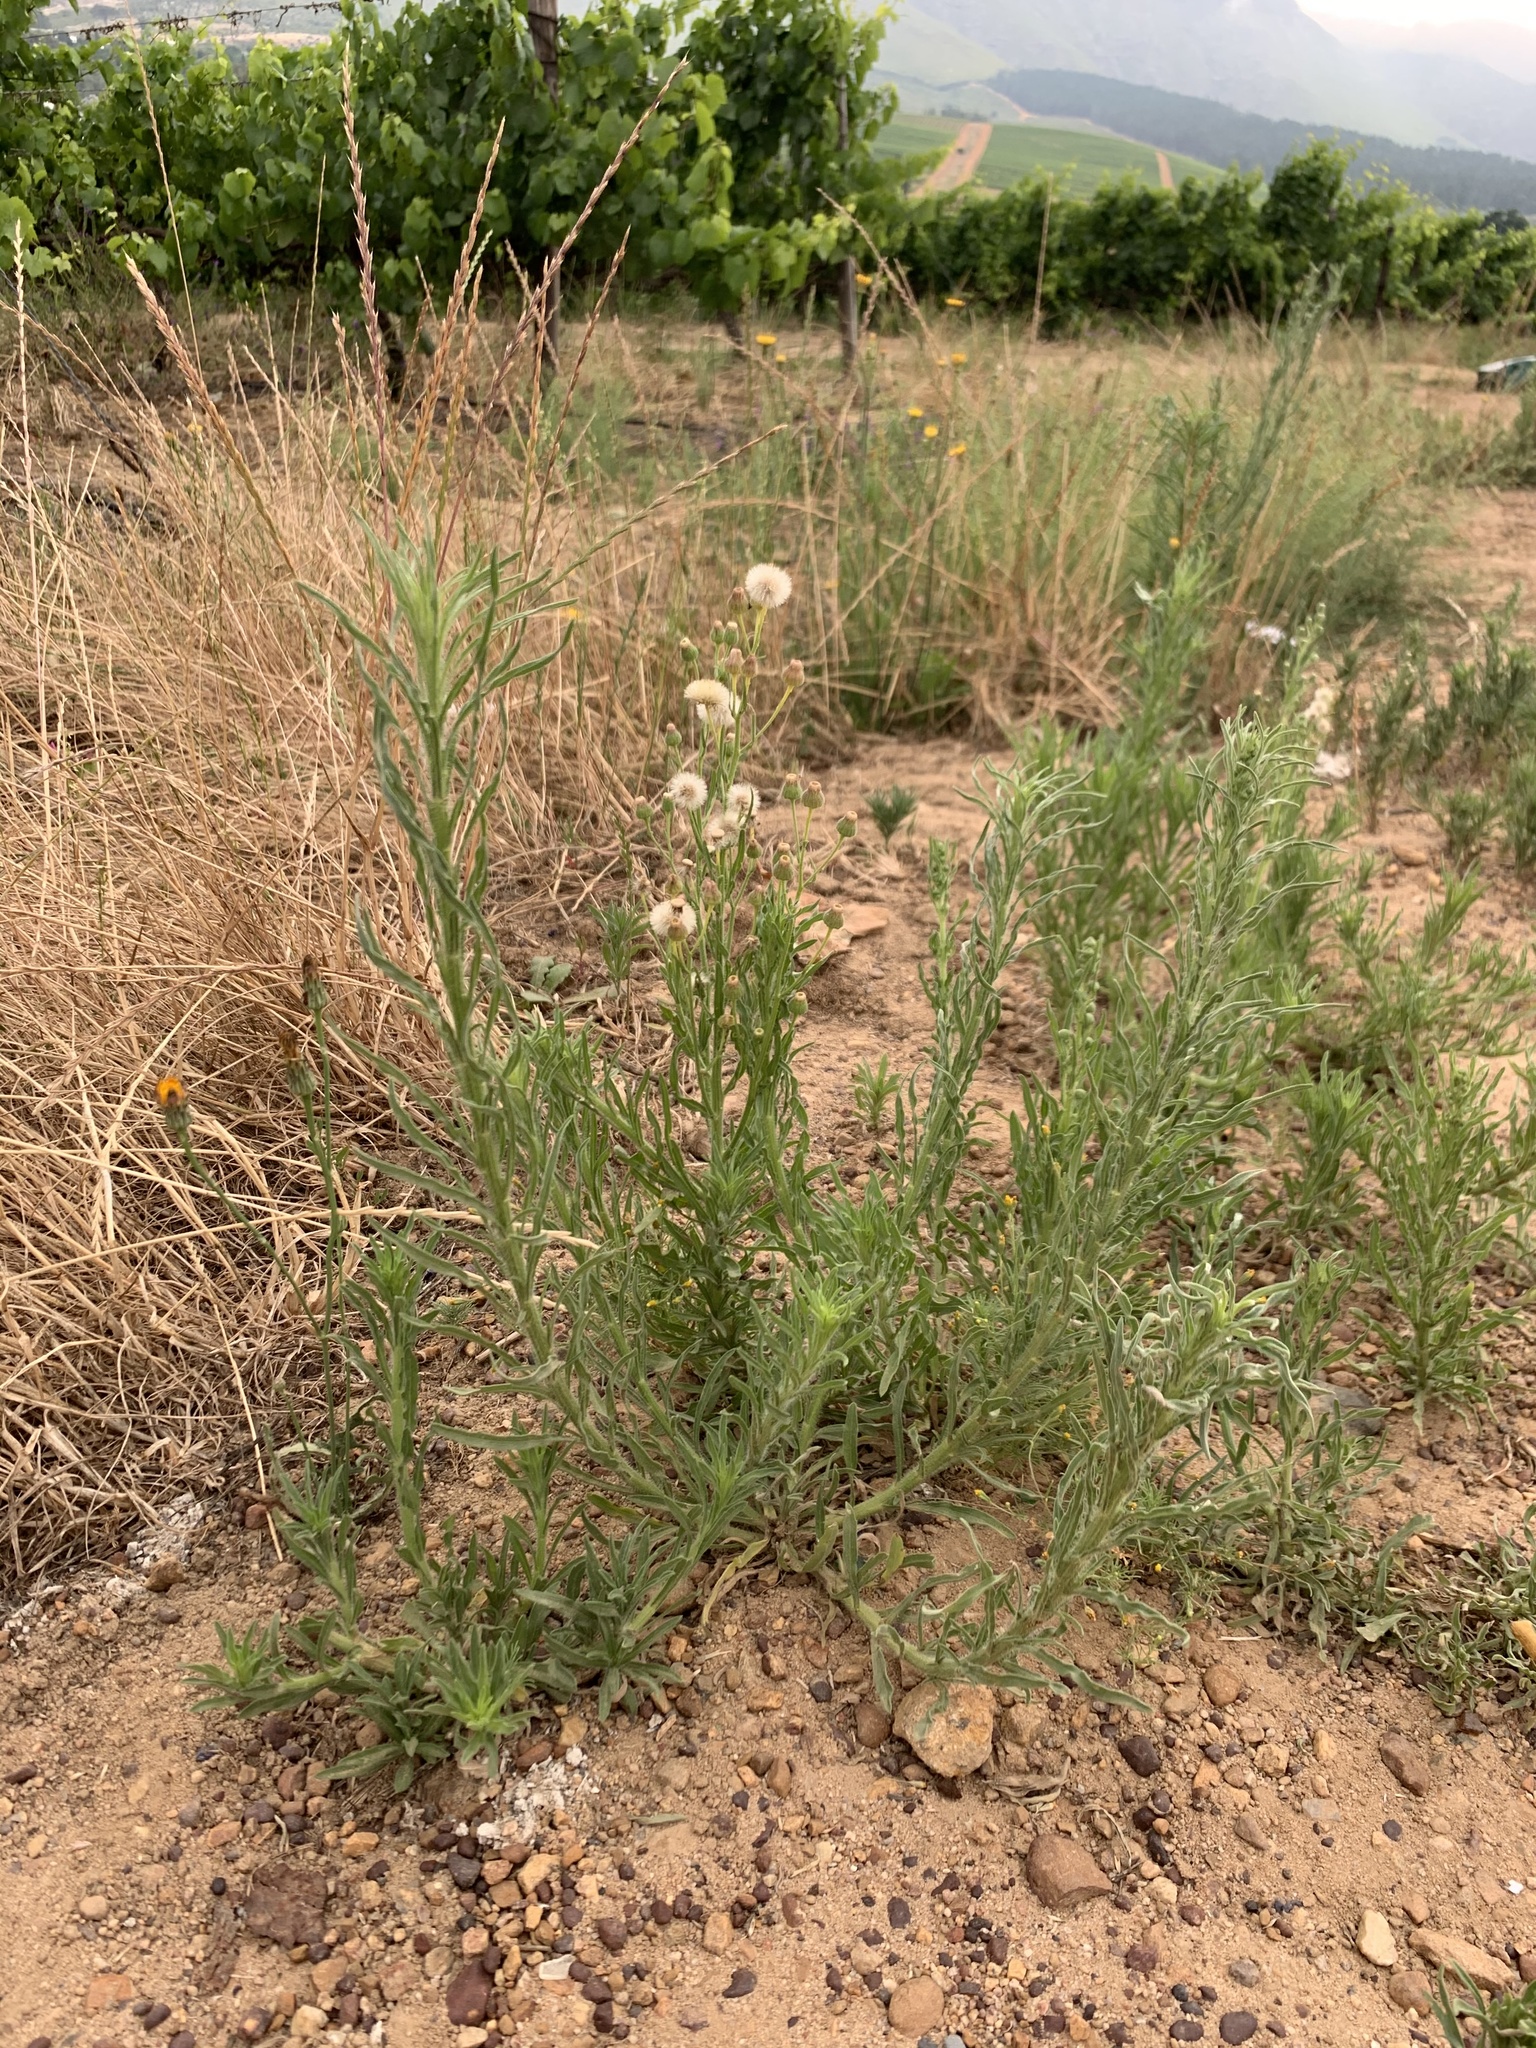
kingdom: Plantae
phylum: Tracheophyta
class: Magnoliopsida
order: Asterales
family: Asteraceae
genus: Erigeron
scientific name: Erigeron bonariensis
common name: Argentine fleabane
